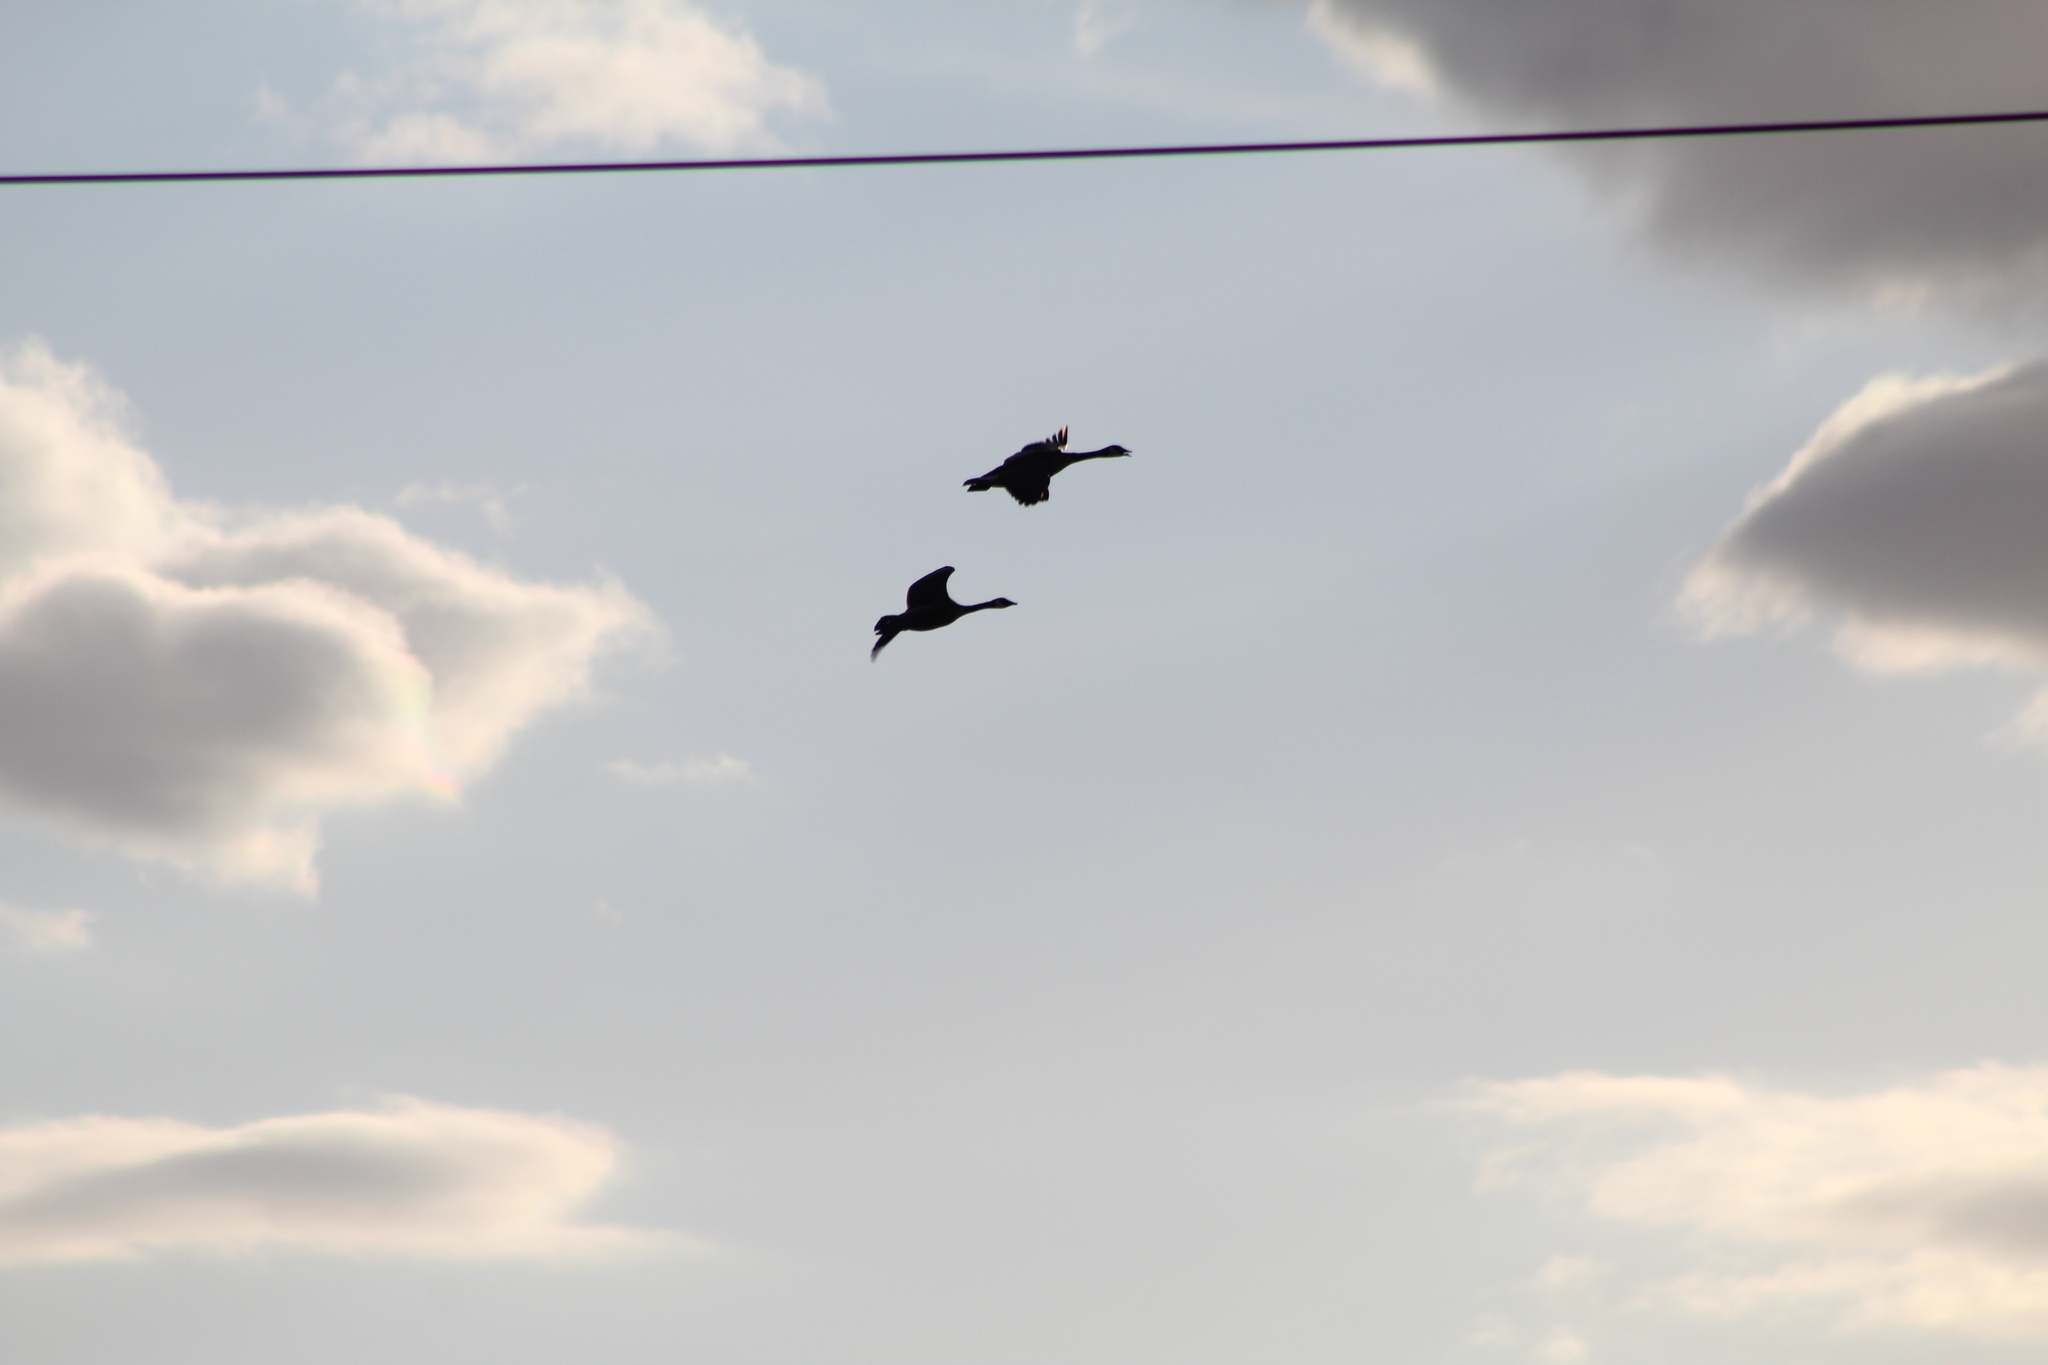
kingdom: Animalia
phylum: Chordata
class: Aves
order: Anseriformes
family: Anatidae
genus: Branta
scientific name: Branta canadensis
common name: Canada goose
